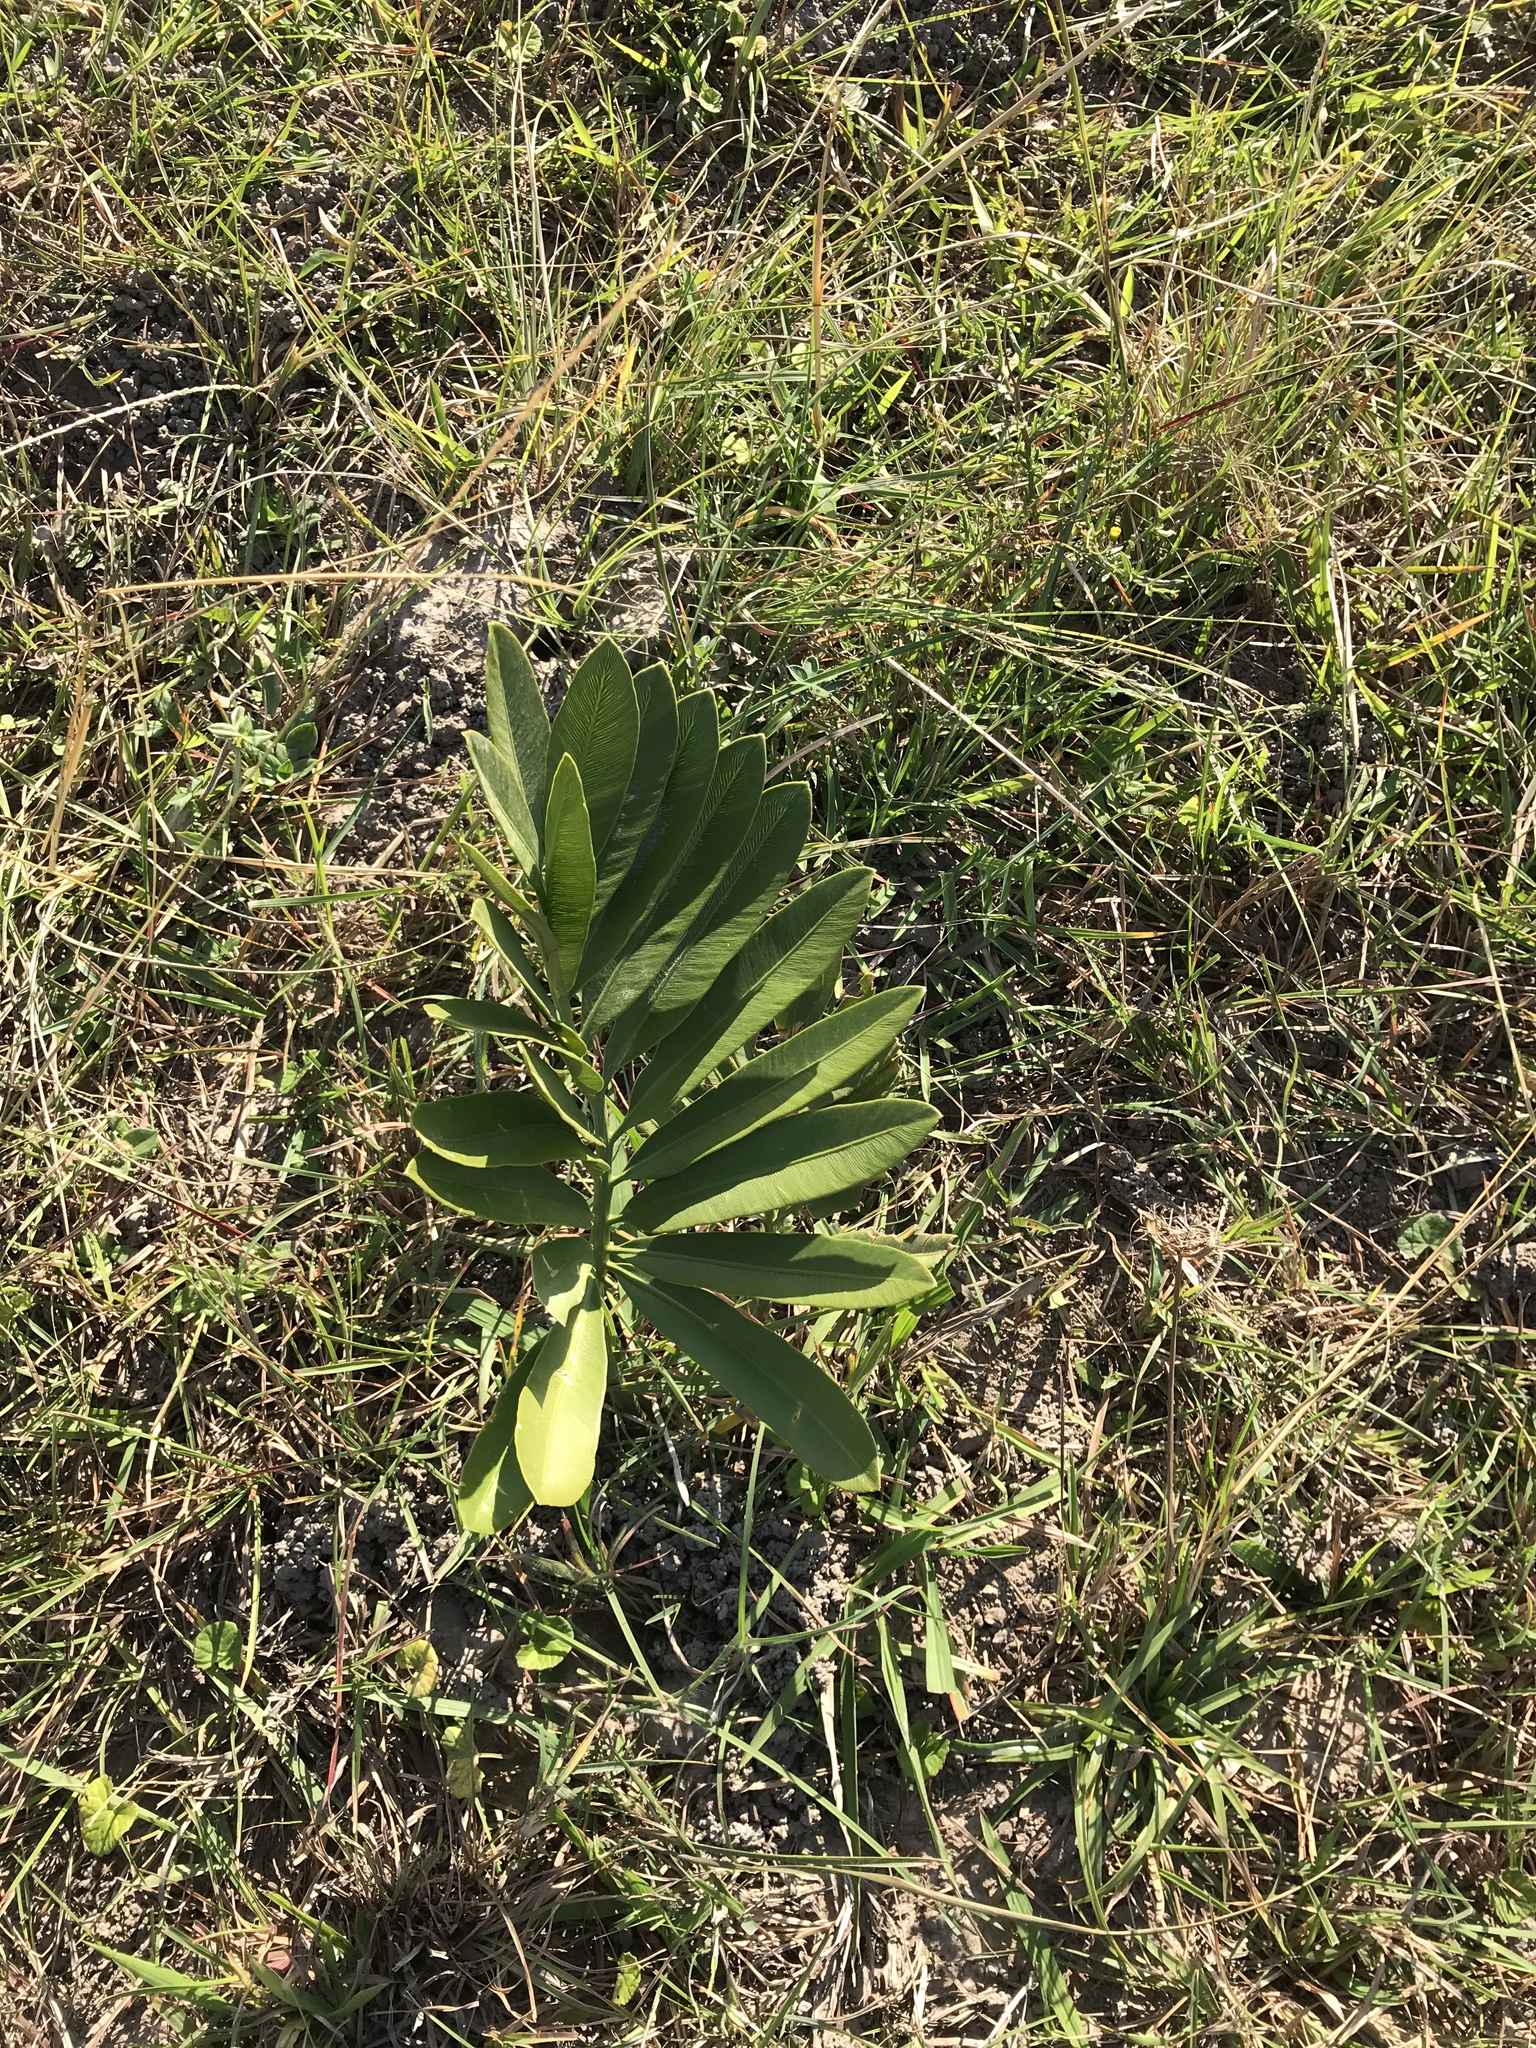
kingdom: Plantae
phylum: Tracheophyta
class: Cycadopsida
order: Cycadales
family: Zamiaceae
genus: Stangeria
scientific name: Stangeria eriopus
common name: Natal grass cycad
